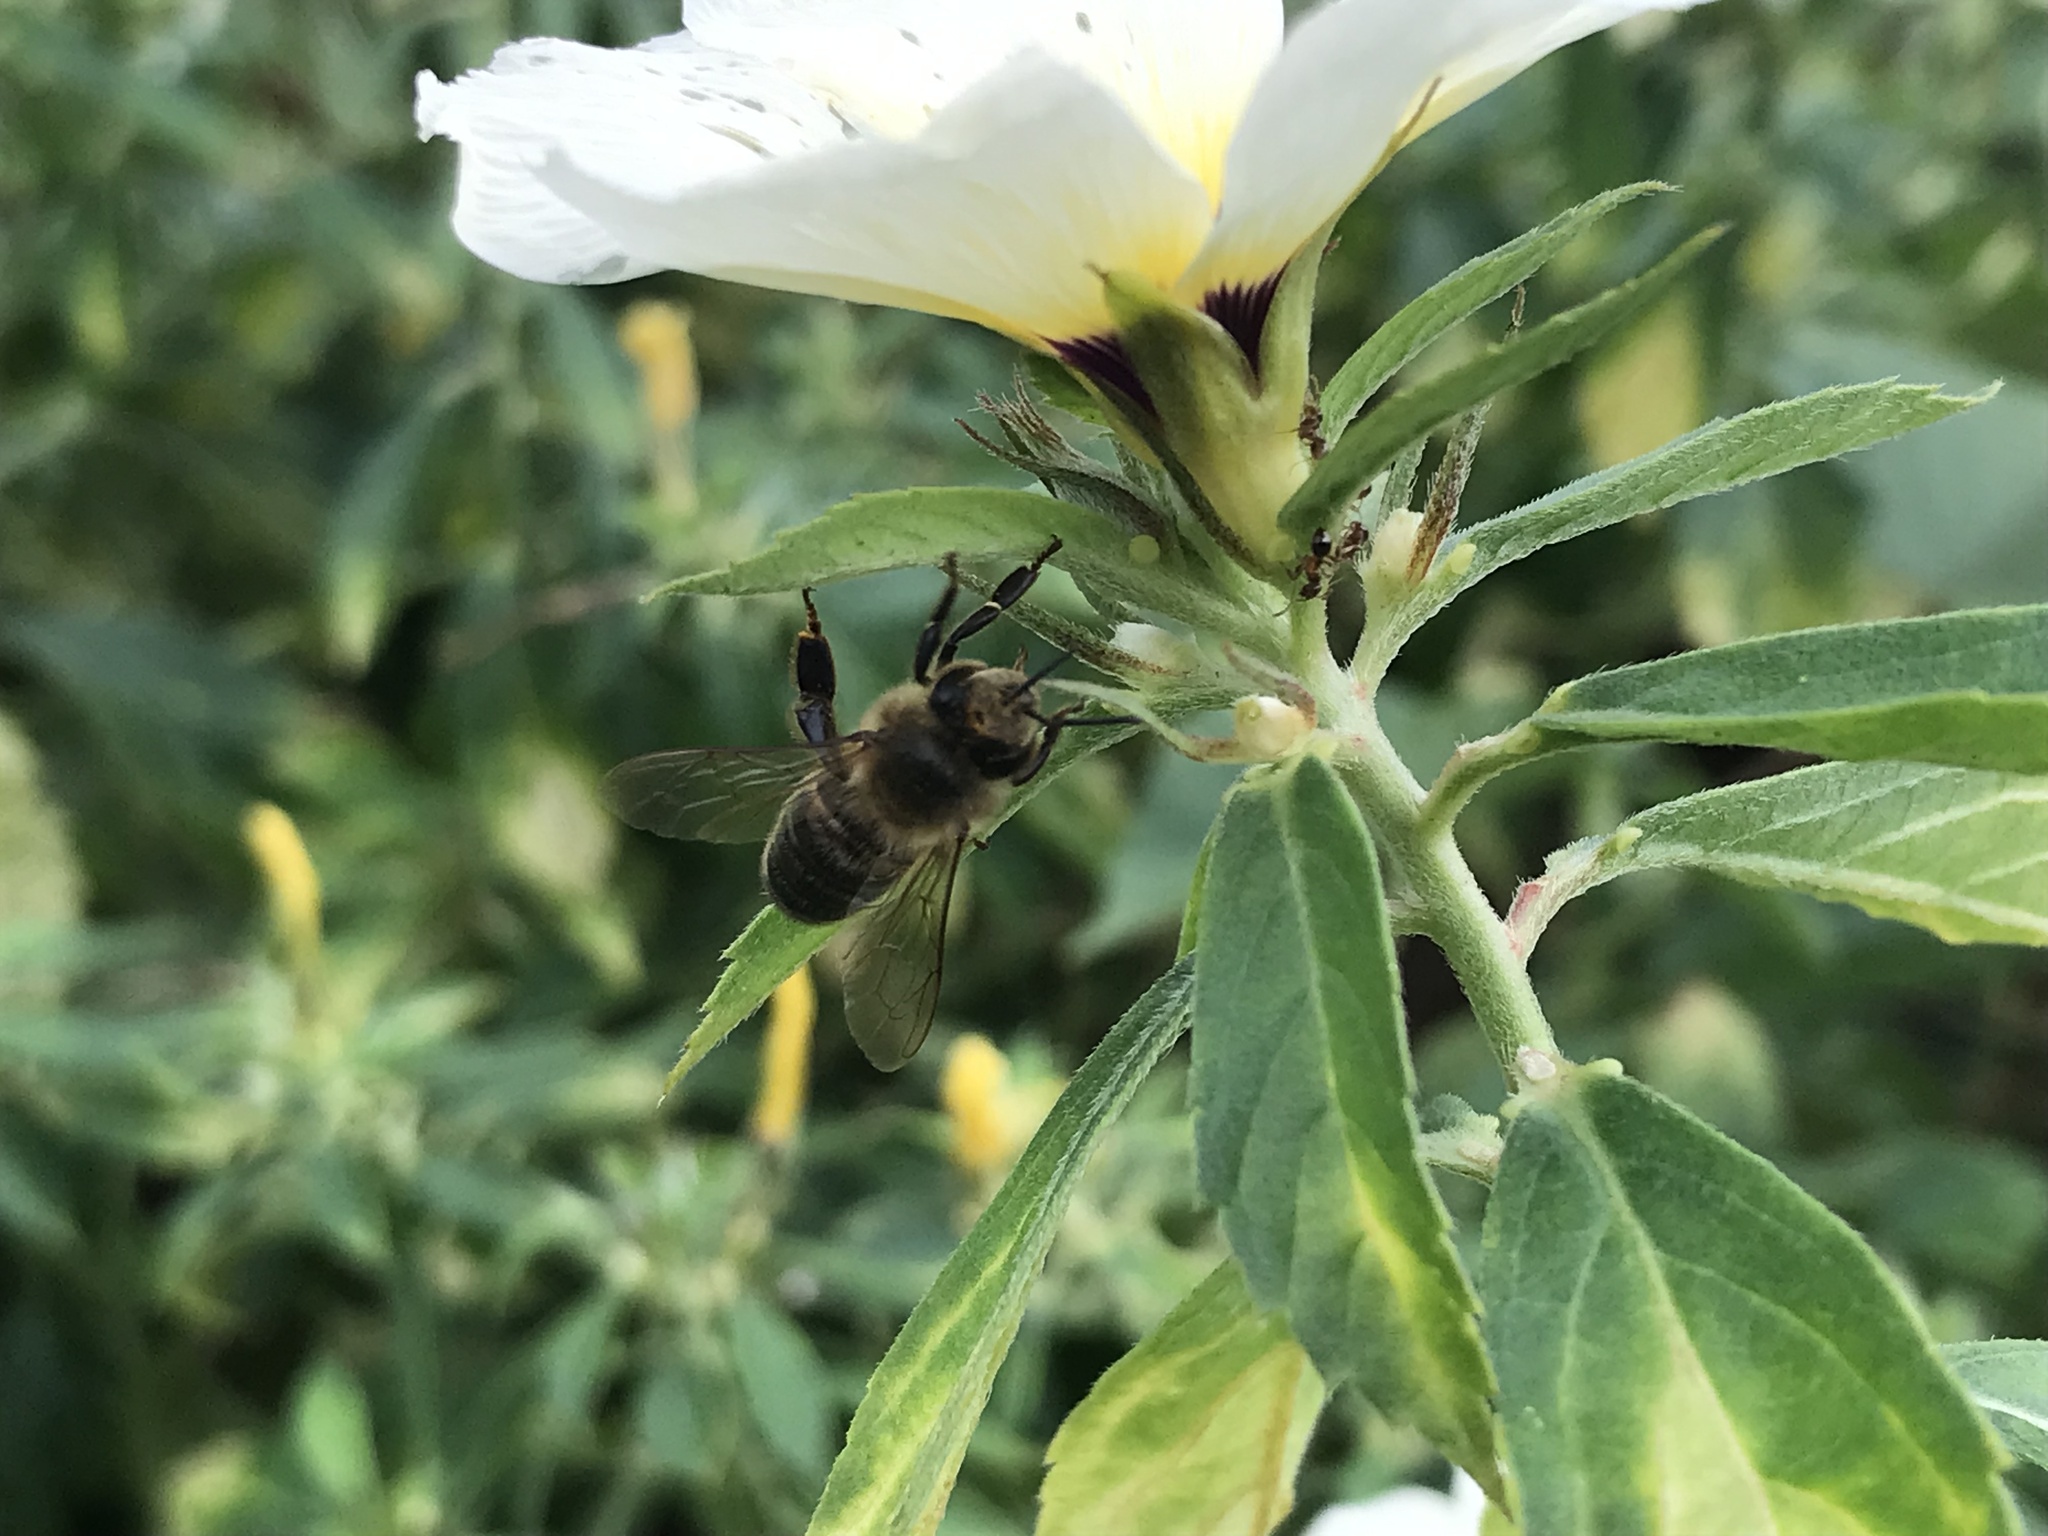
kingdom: Animalia
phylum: Arthropoda
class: Insecta
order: Hymenoptera
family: Apidae
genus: Apis
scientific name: Apis mellifera
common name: Honey bee
